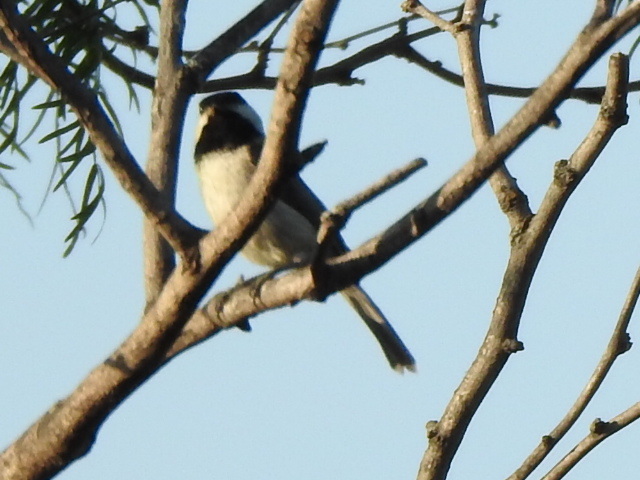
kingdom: Animalia
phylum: Chordata
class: Aves
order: Passeriformes
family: Paridae
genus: Poecile
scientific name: Poecile carolinensis
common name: Carolina chickadee
